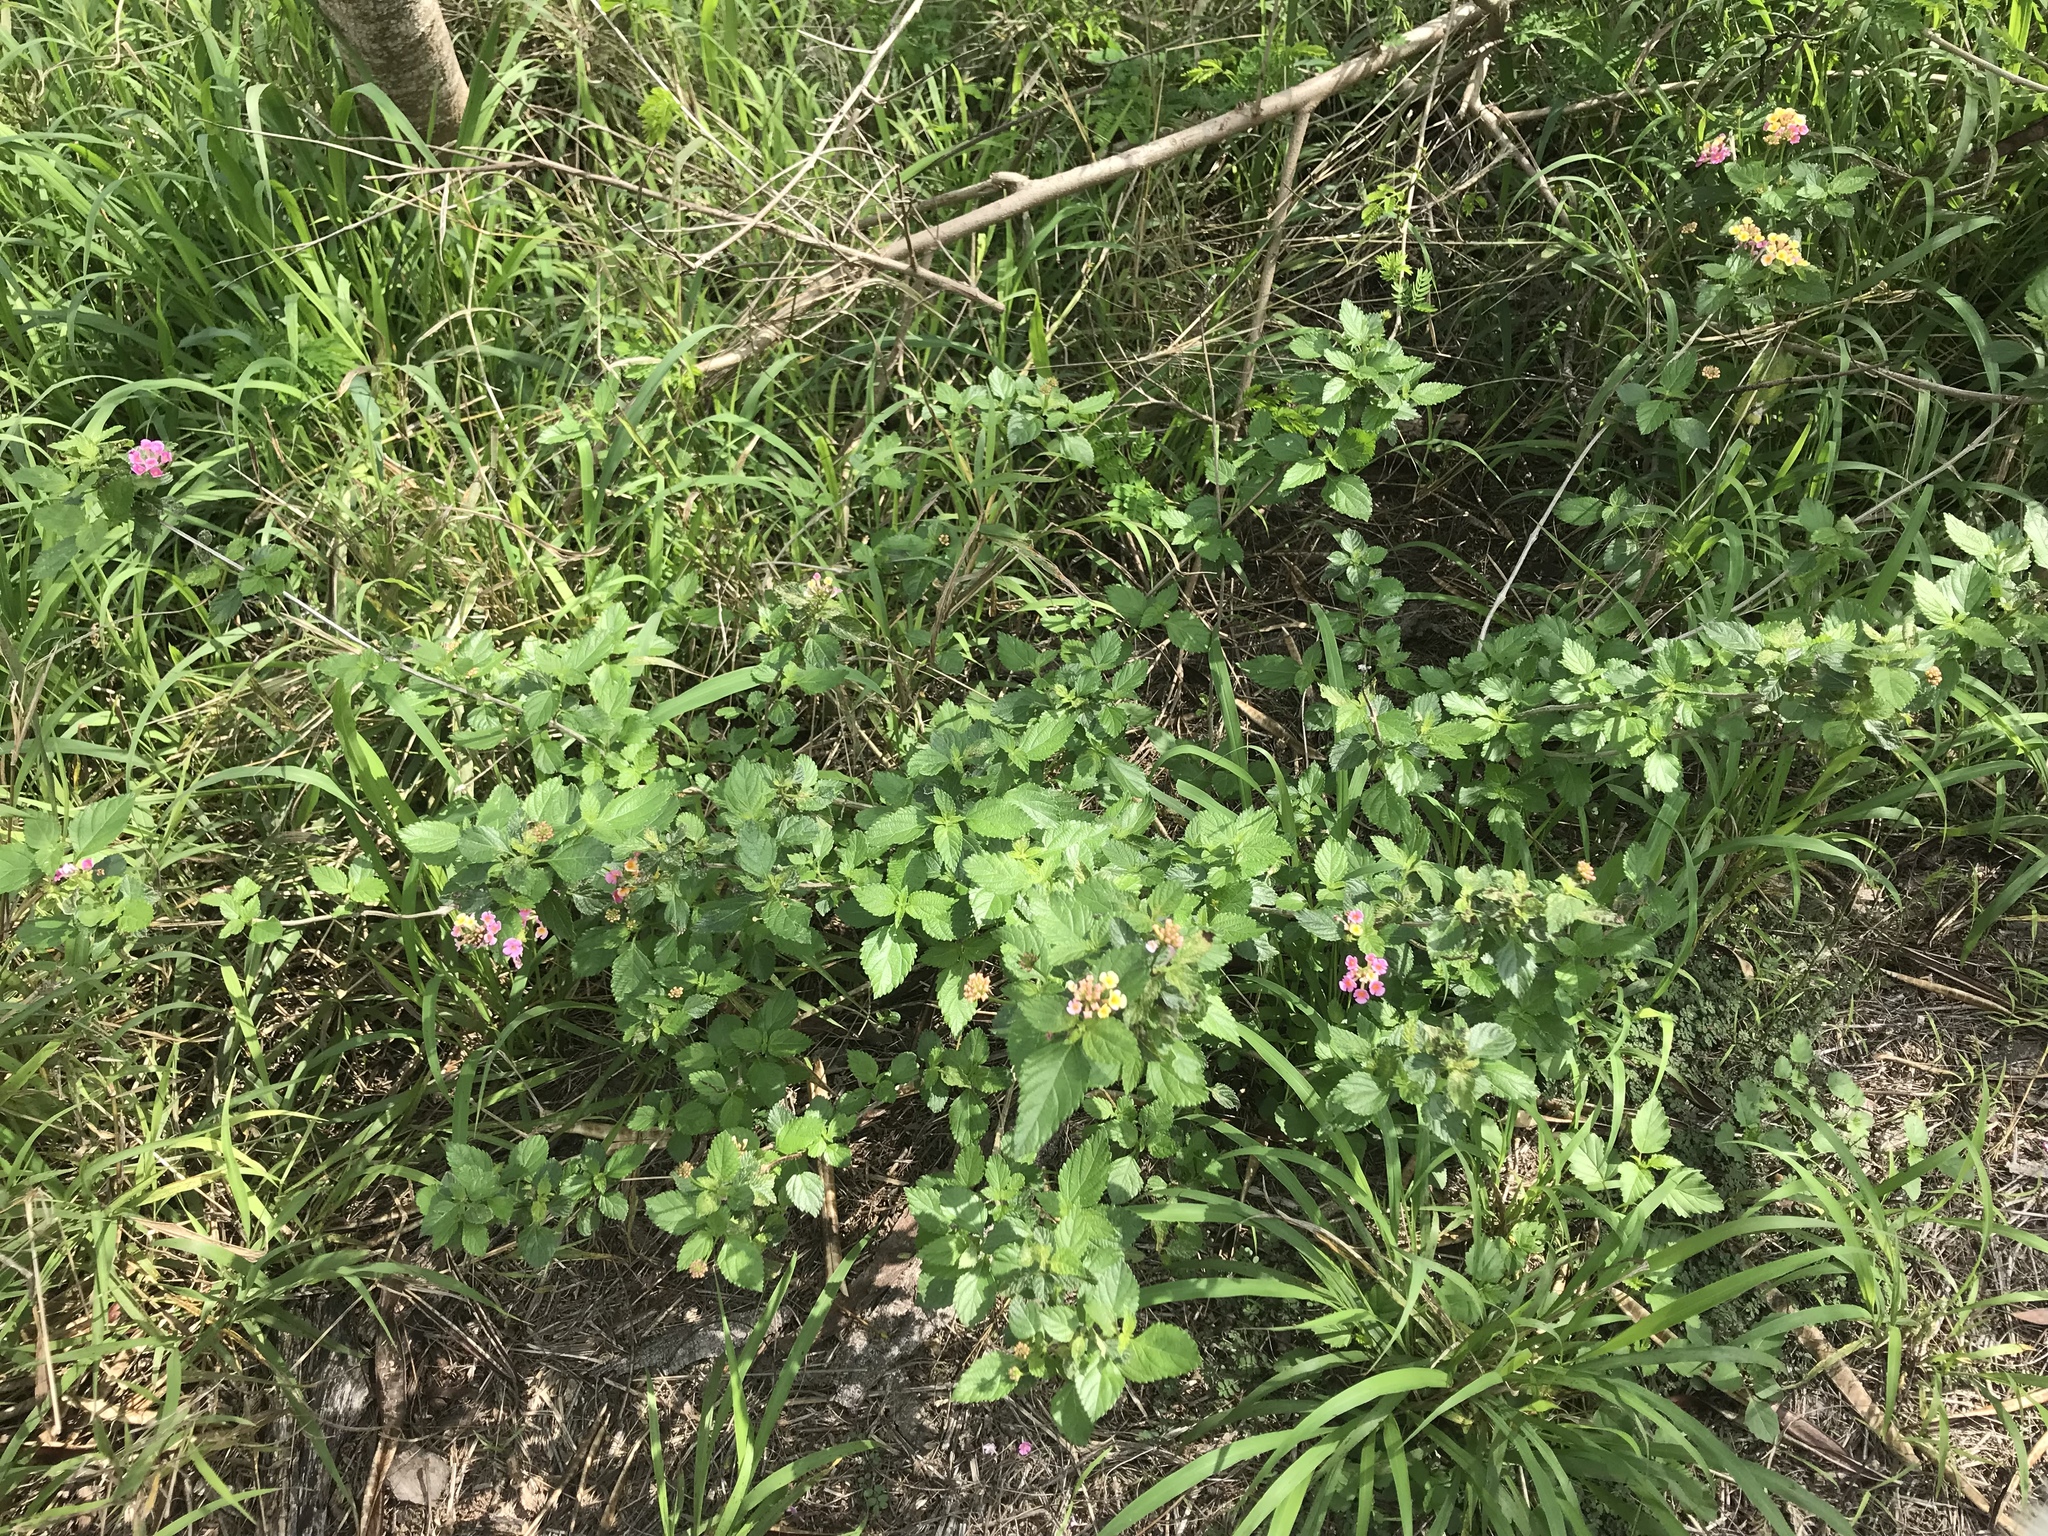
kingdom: Plantae
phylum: Tracheophyta
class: Magnoliopsida
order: Lamiales
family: Verbenaceae
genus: Lantana
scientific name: Lantana strigocamara
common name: Lantana
